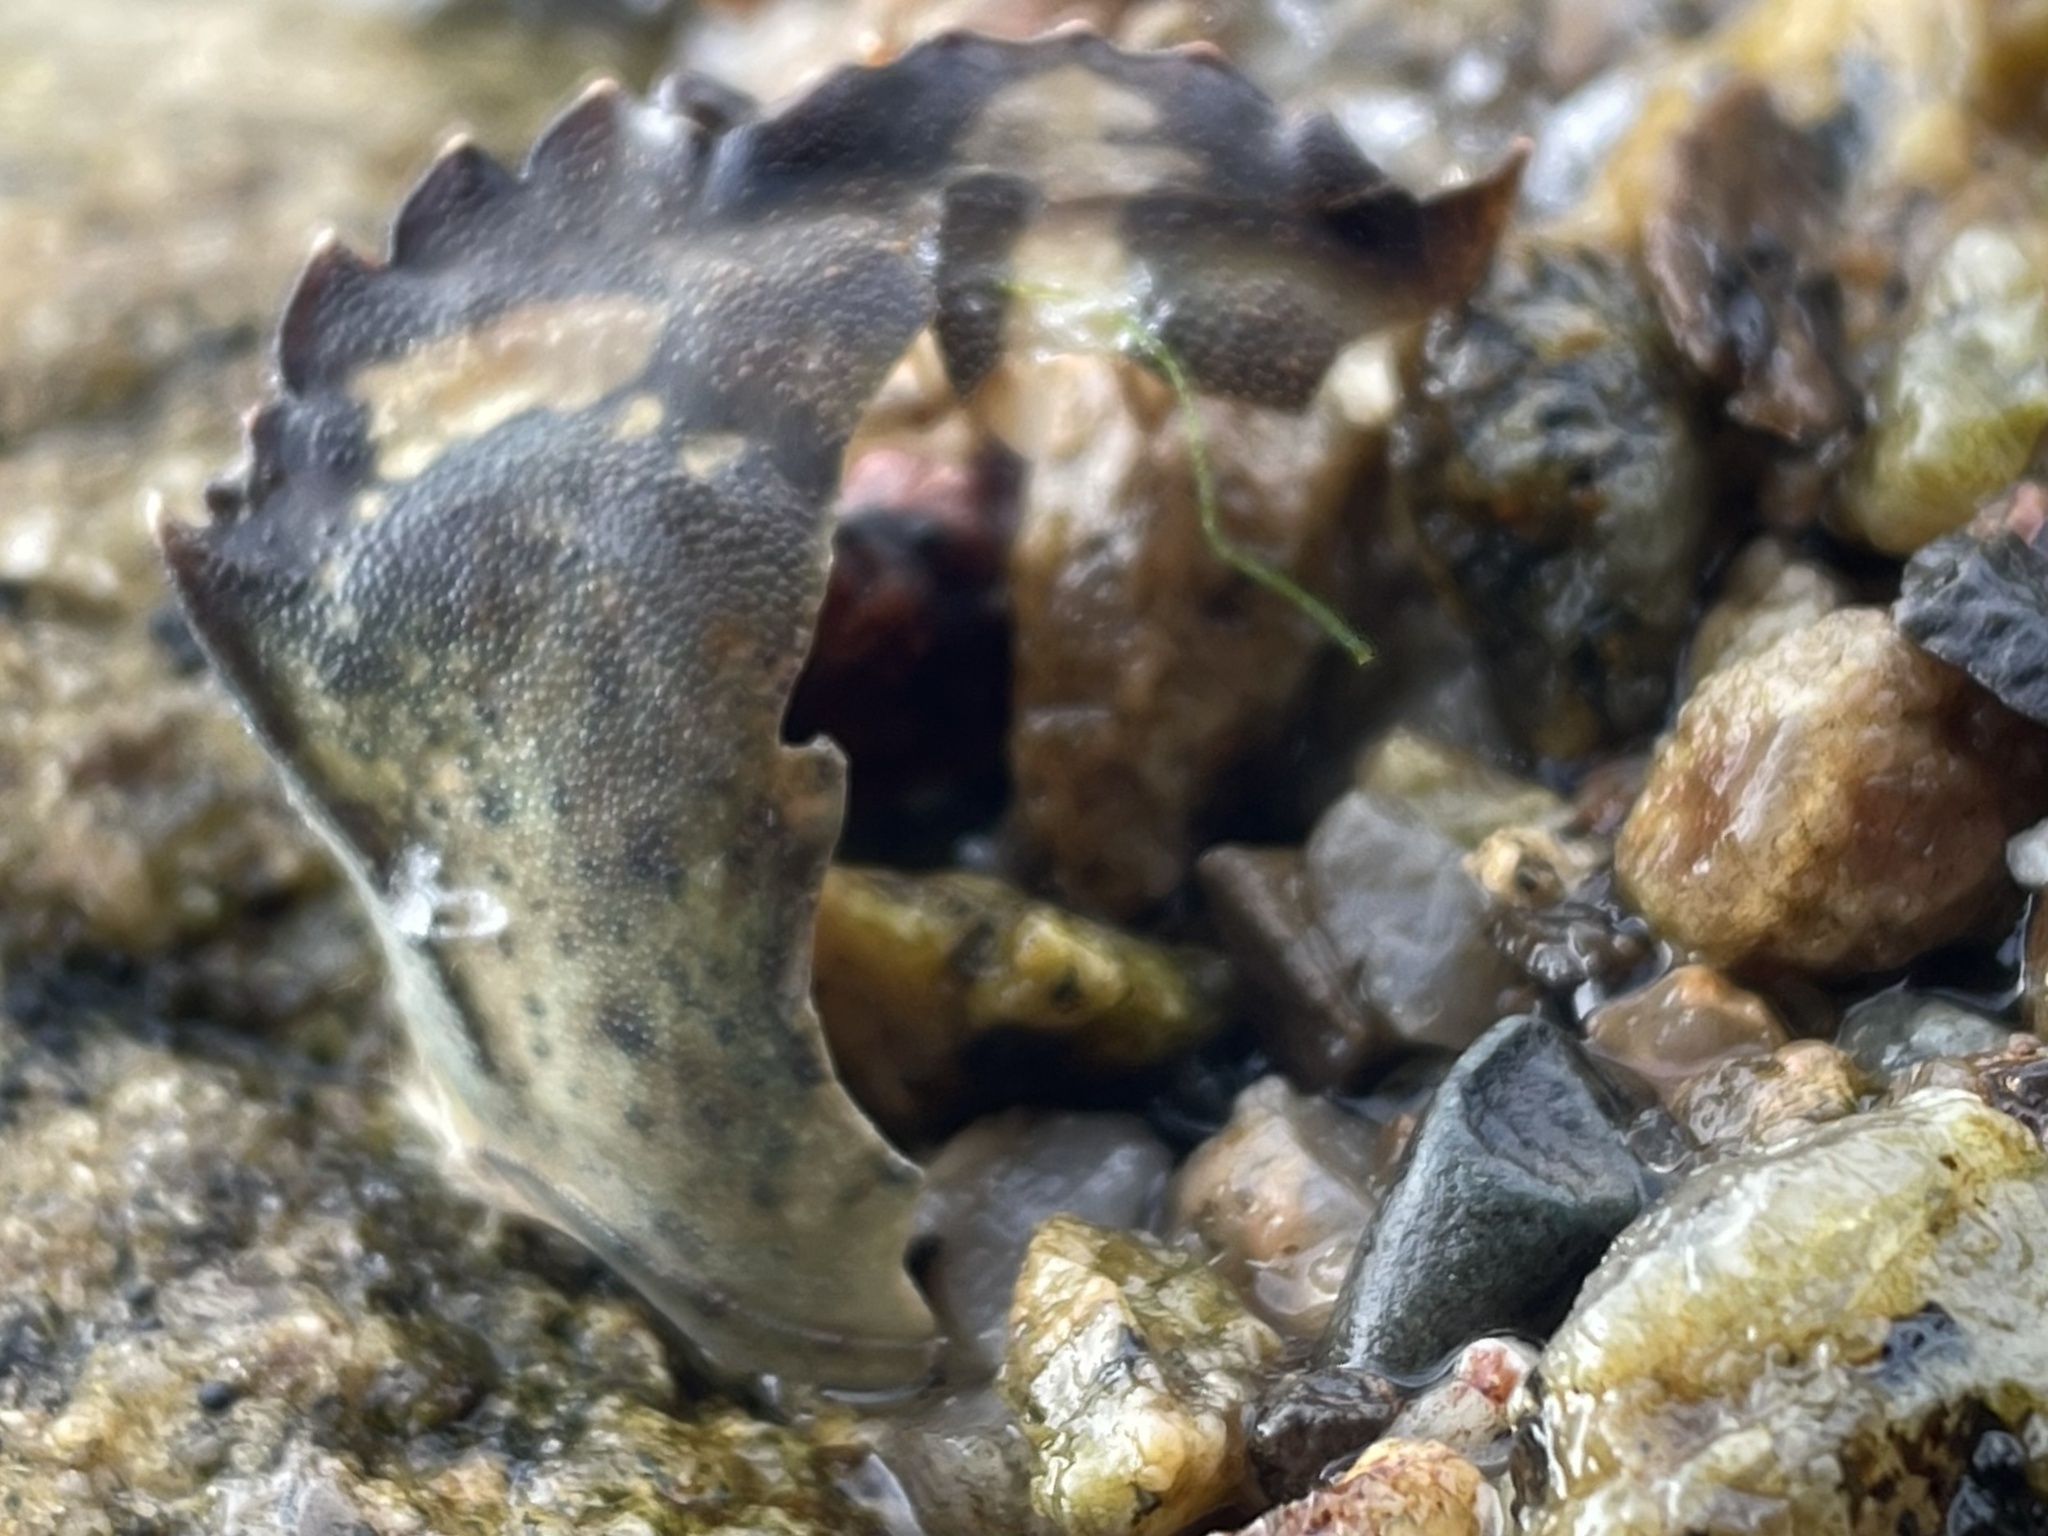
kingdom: Animalia
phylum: Arthropoda
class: Malacostraca
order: Decapoda
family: Carcinidae
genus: Carcinus
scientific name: Carcinus maenas
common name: European green crab
